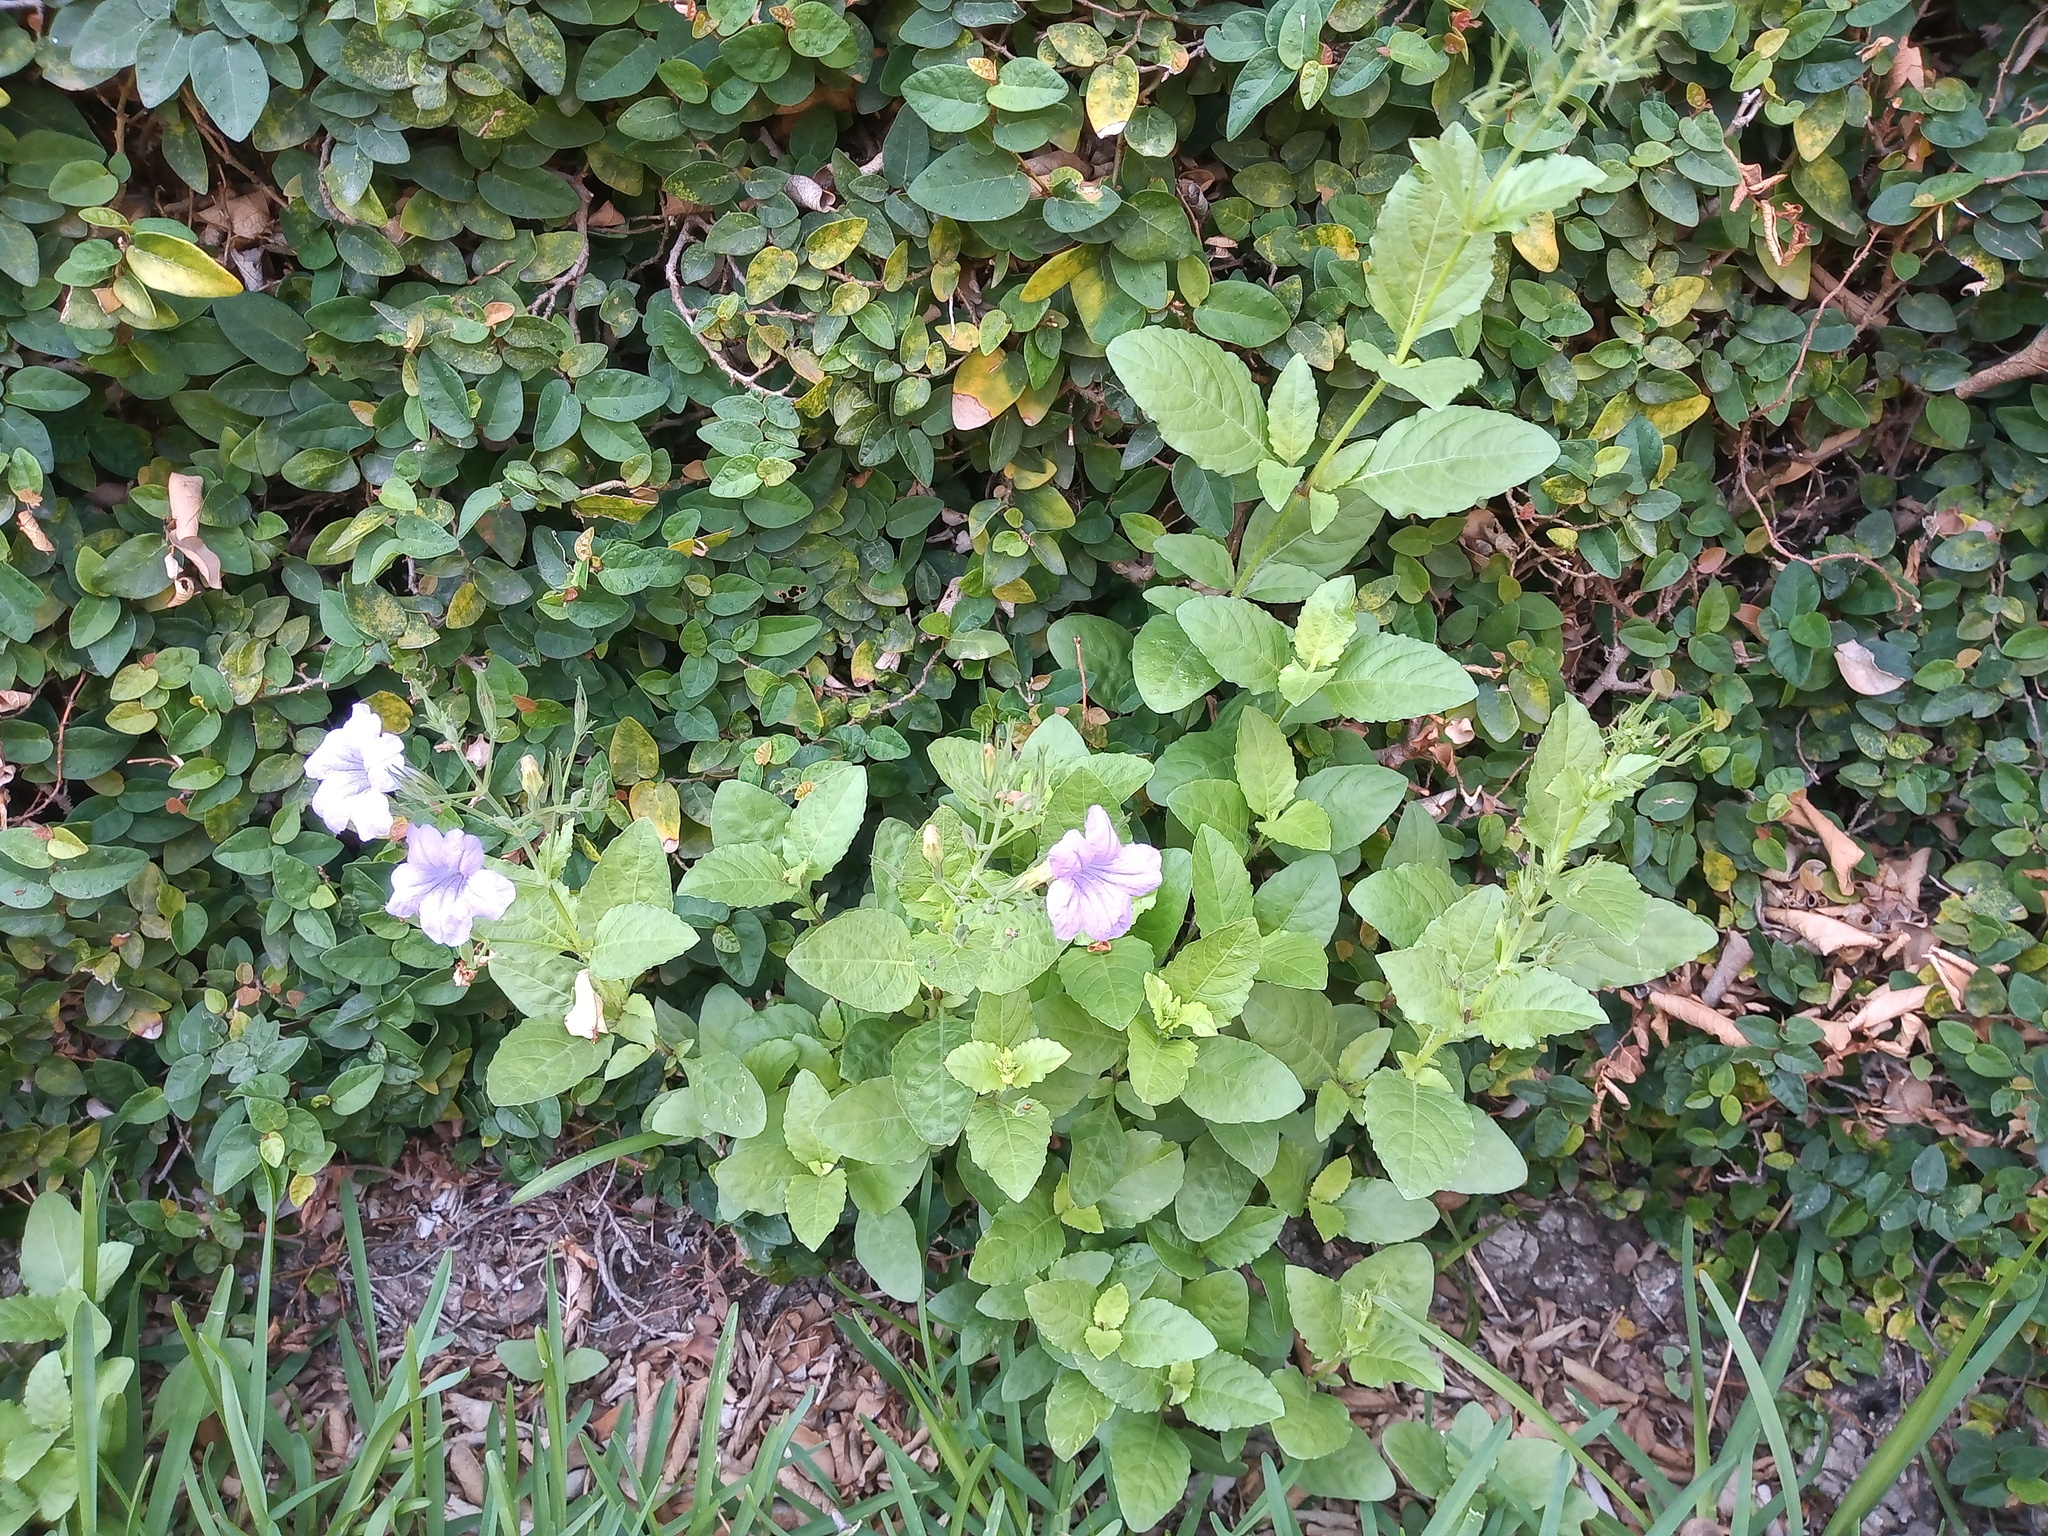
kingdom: Plantae
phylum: Tracheophyta
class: Magnoliopsida
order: Lamiales
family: Acanthaceae
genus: Ruellia
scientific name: Ruellia ciliatiflora
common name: Hairyflower wild petunia
